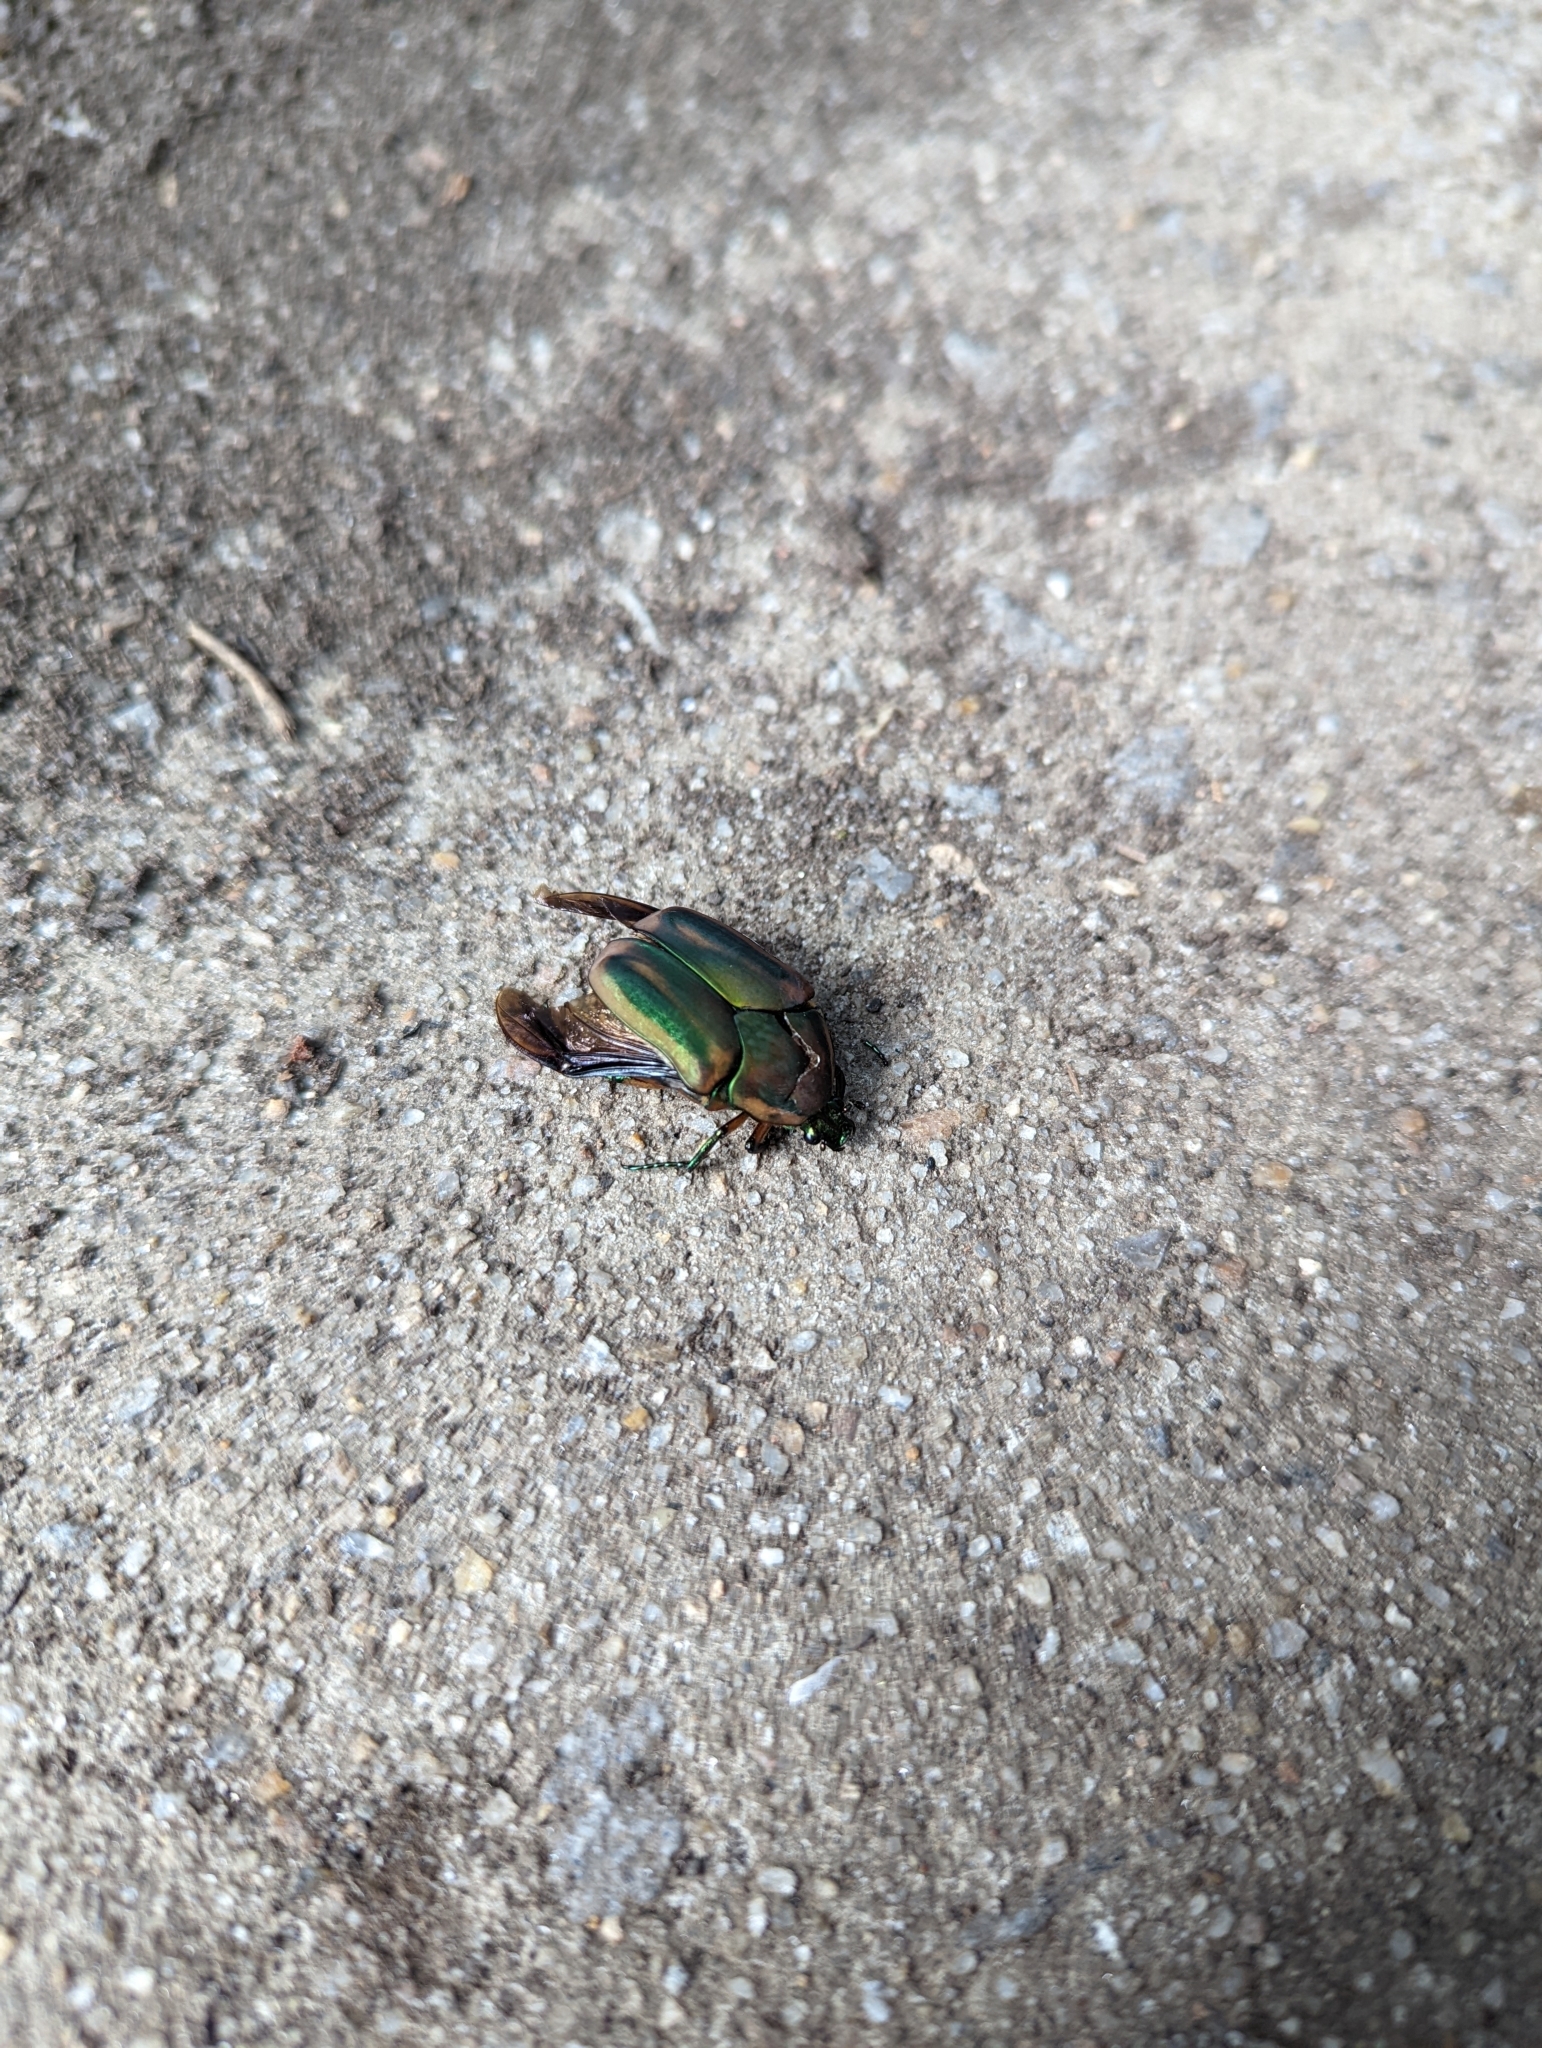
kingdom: Animalia
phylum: Arthropoda
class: Insecta
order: Coleoptera
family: Scarabaeidae
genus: Cotinis
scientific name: Cotinis nitida
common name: Common green june beetle
